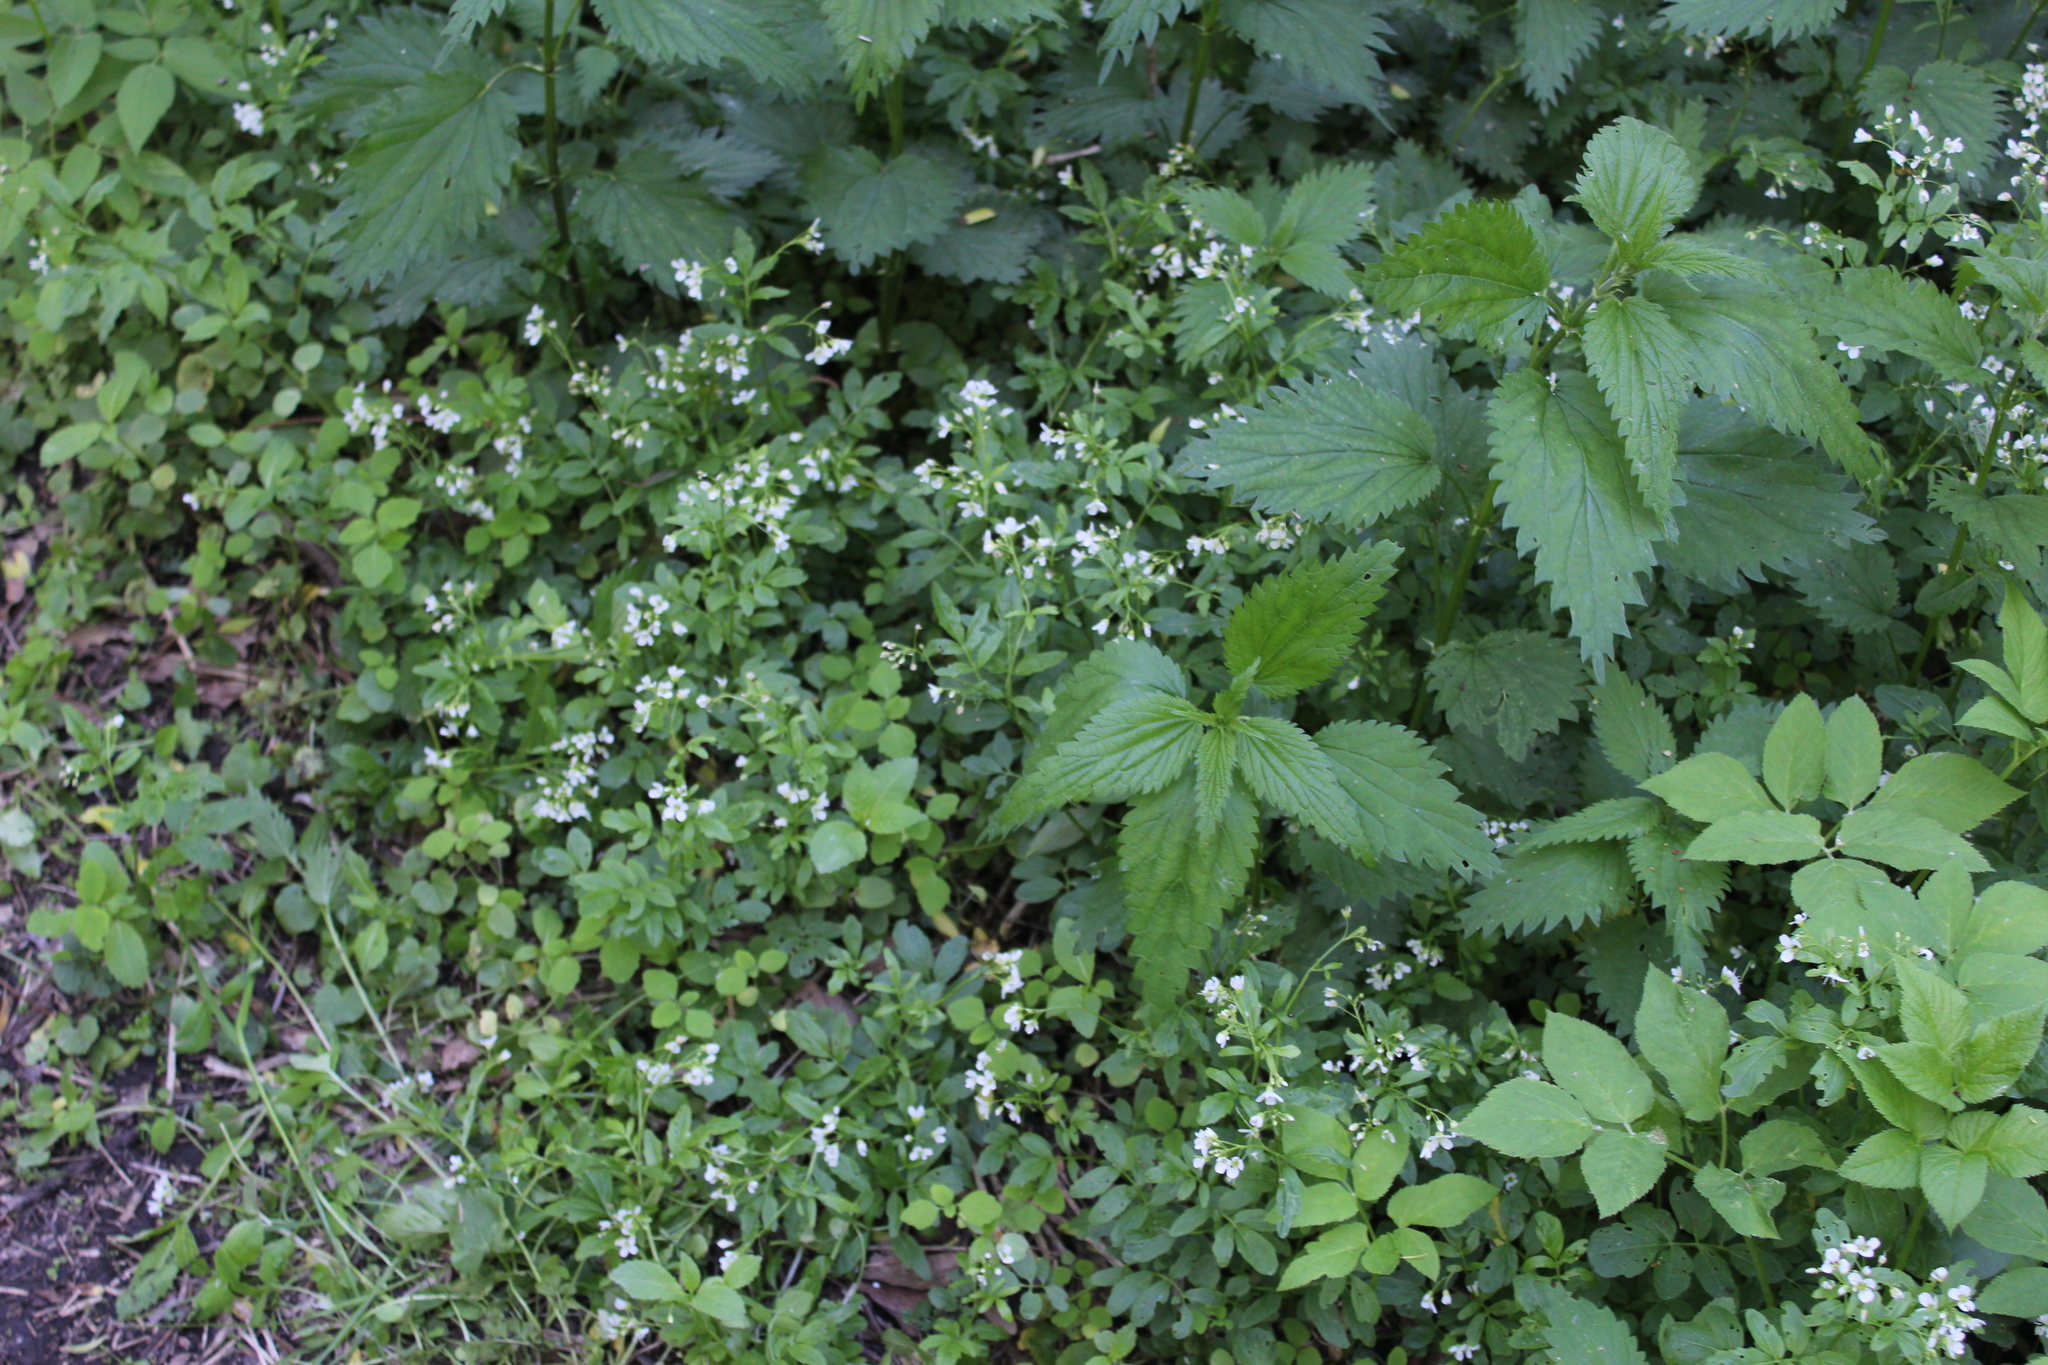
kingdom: Plantae
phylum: Tracheophyta
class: Magnoliopsida
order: Brassicales
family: Brassicaceae
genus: Cardamine
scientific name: Cardamine amara
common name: Large bitter-cress
